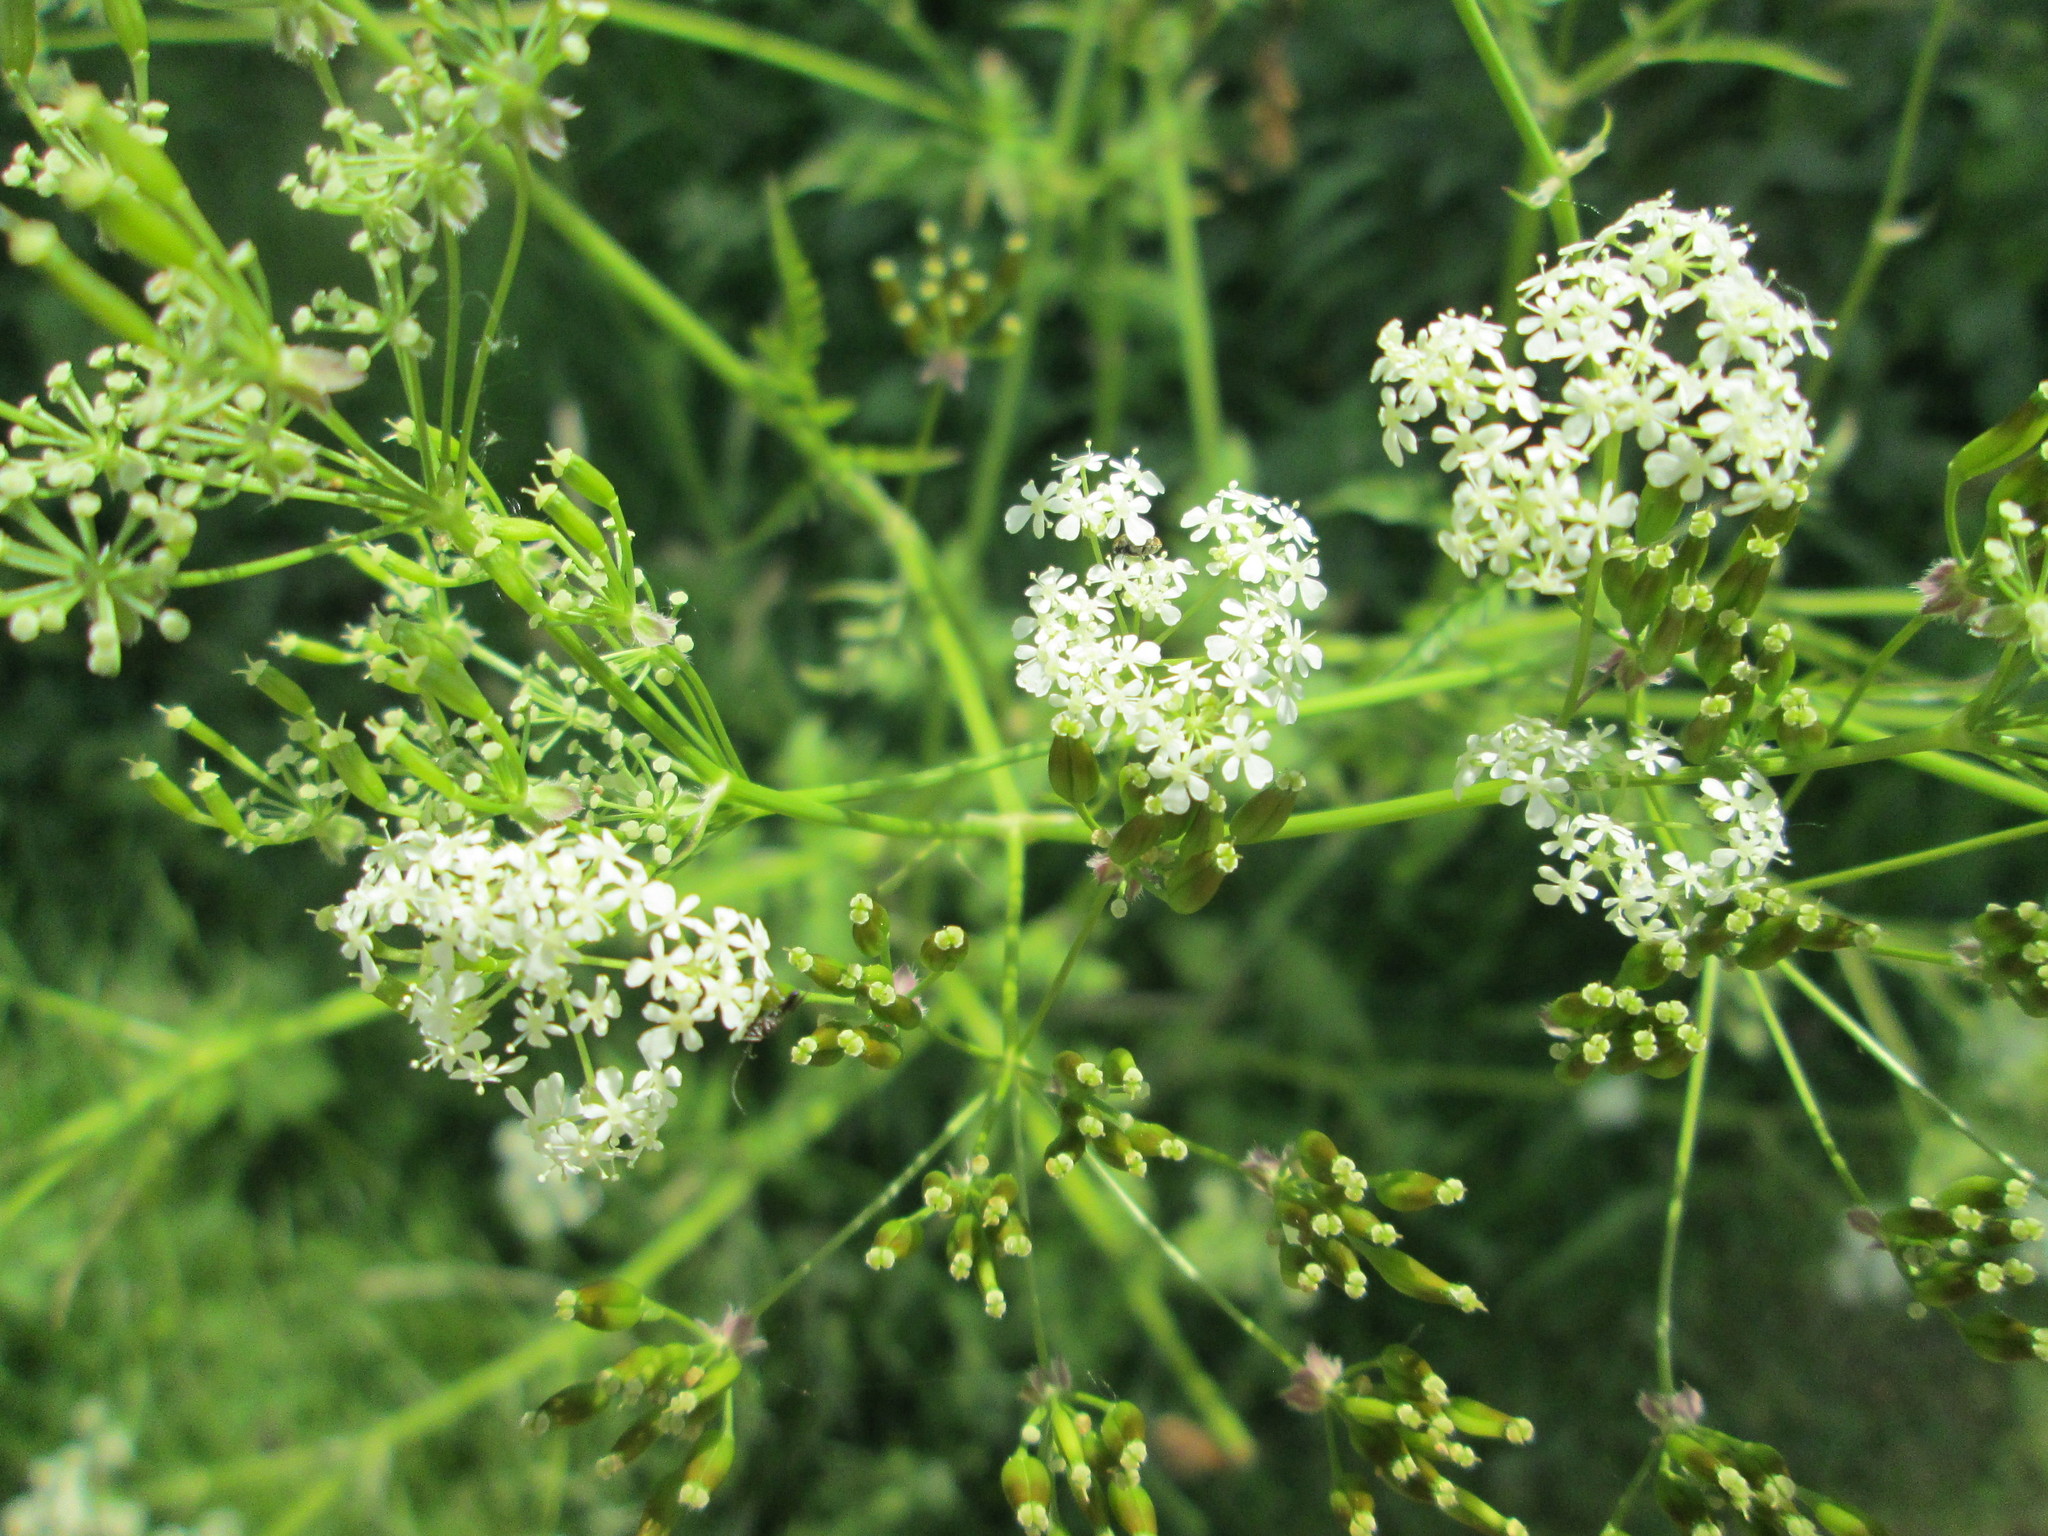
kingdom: Plantae
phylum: Tracheophyta
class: Magnoliopsida
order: Apiales
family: Apiaceae
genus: Anthriscus
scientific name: Anthriscus sylvestris
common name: Cow parsley
